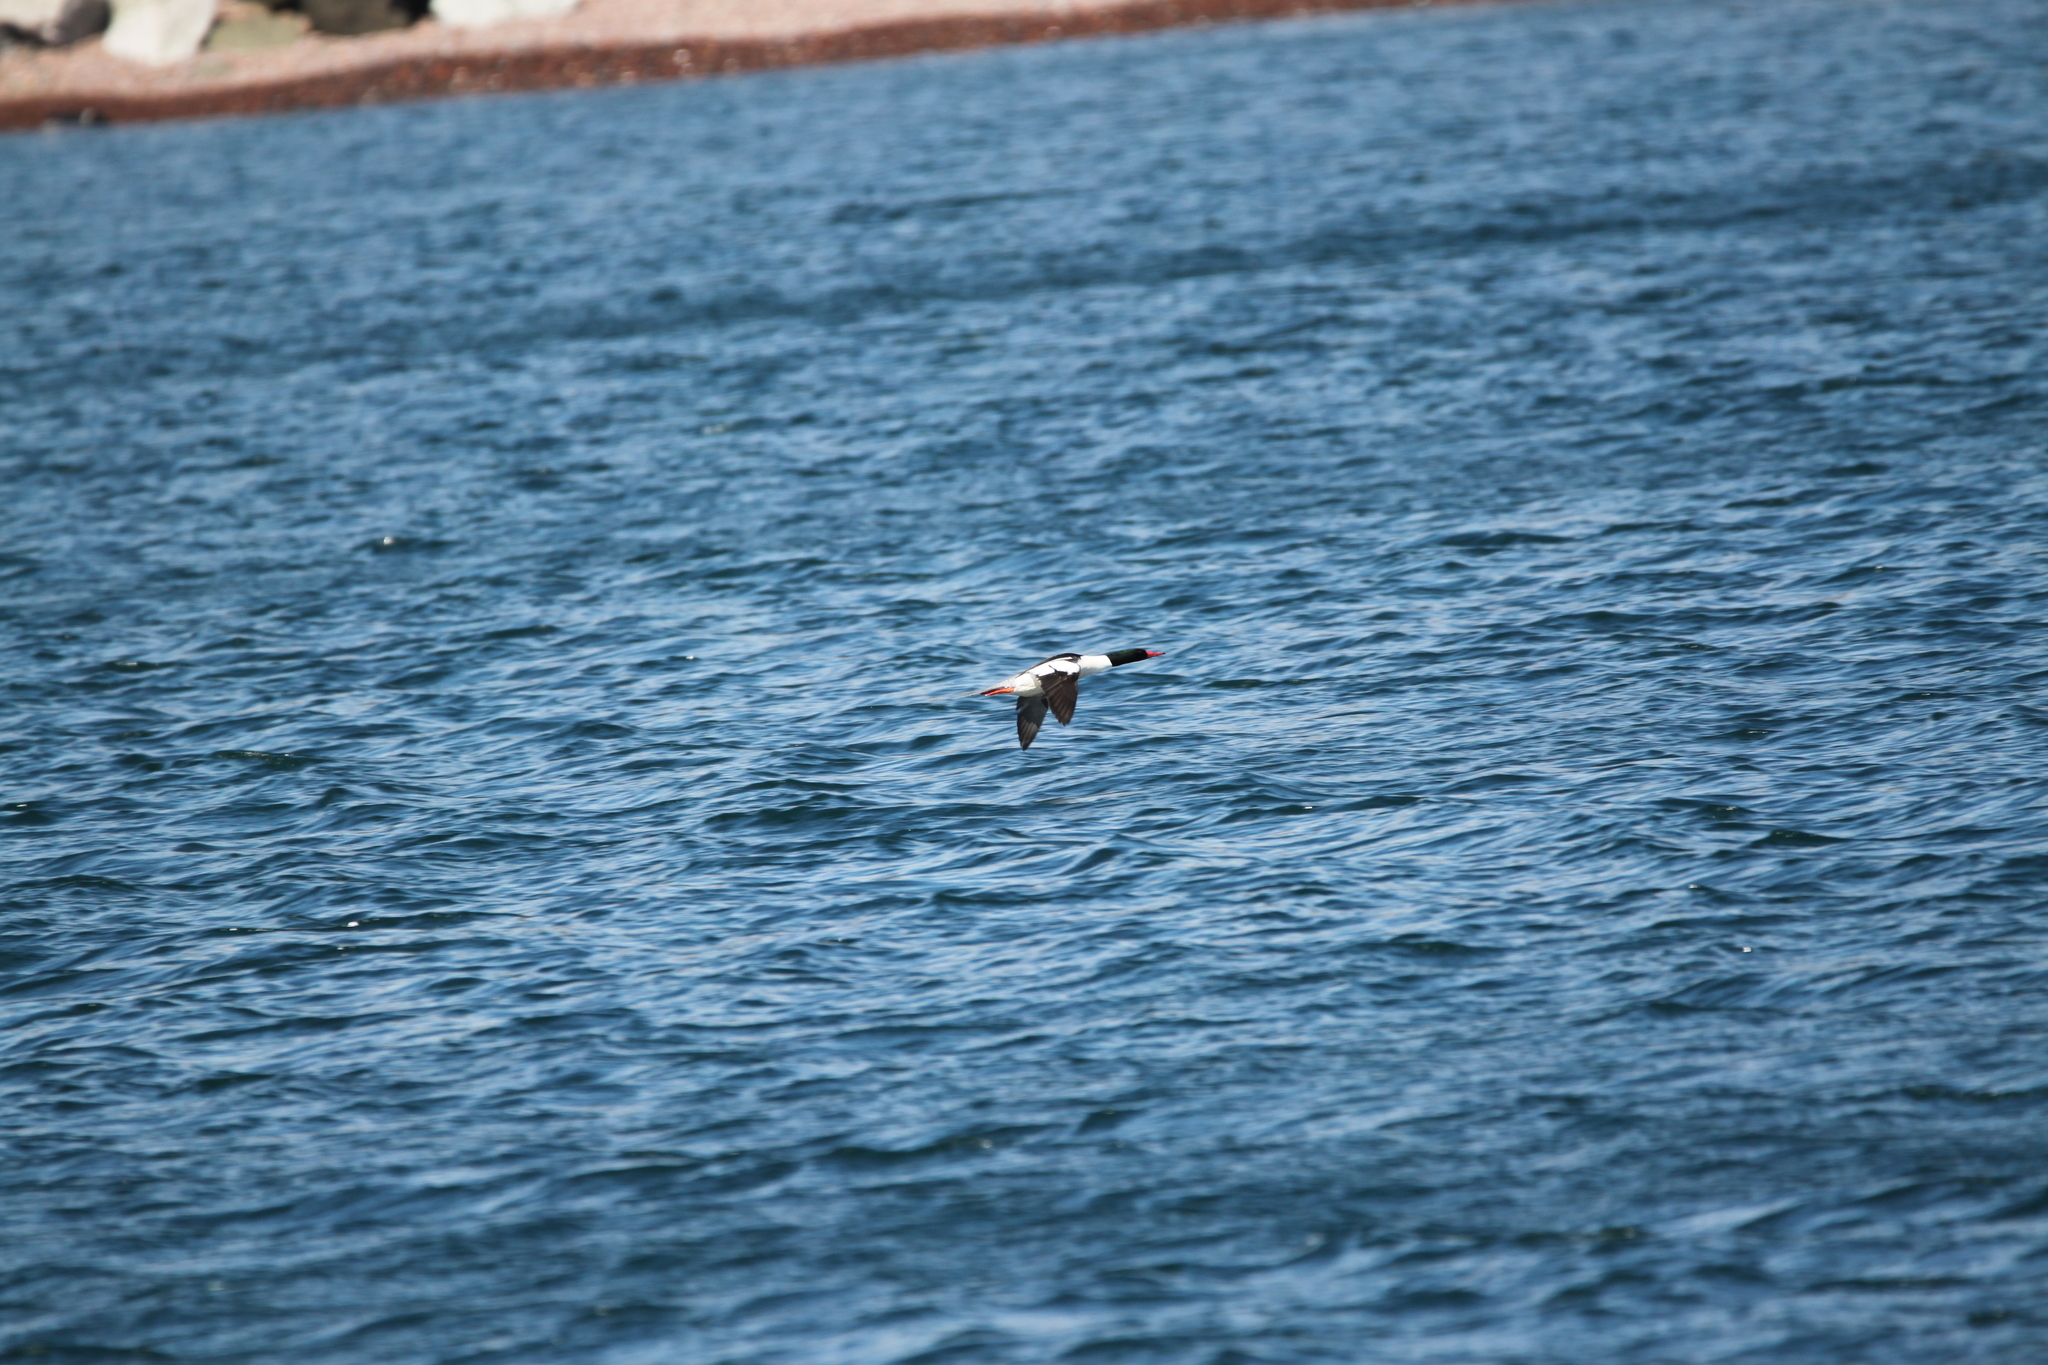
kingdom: Animalia
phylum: Chordata
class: Aves
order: Anseriformes
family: Anatidae
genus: Mergus
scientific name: Mergus merganser
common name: Common merganser
